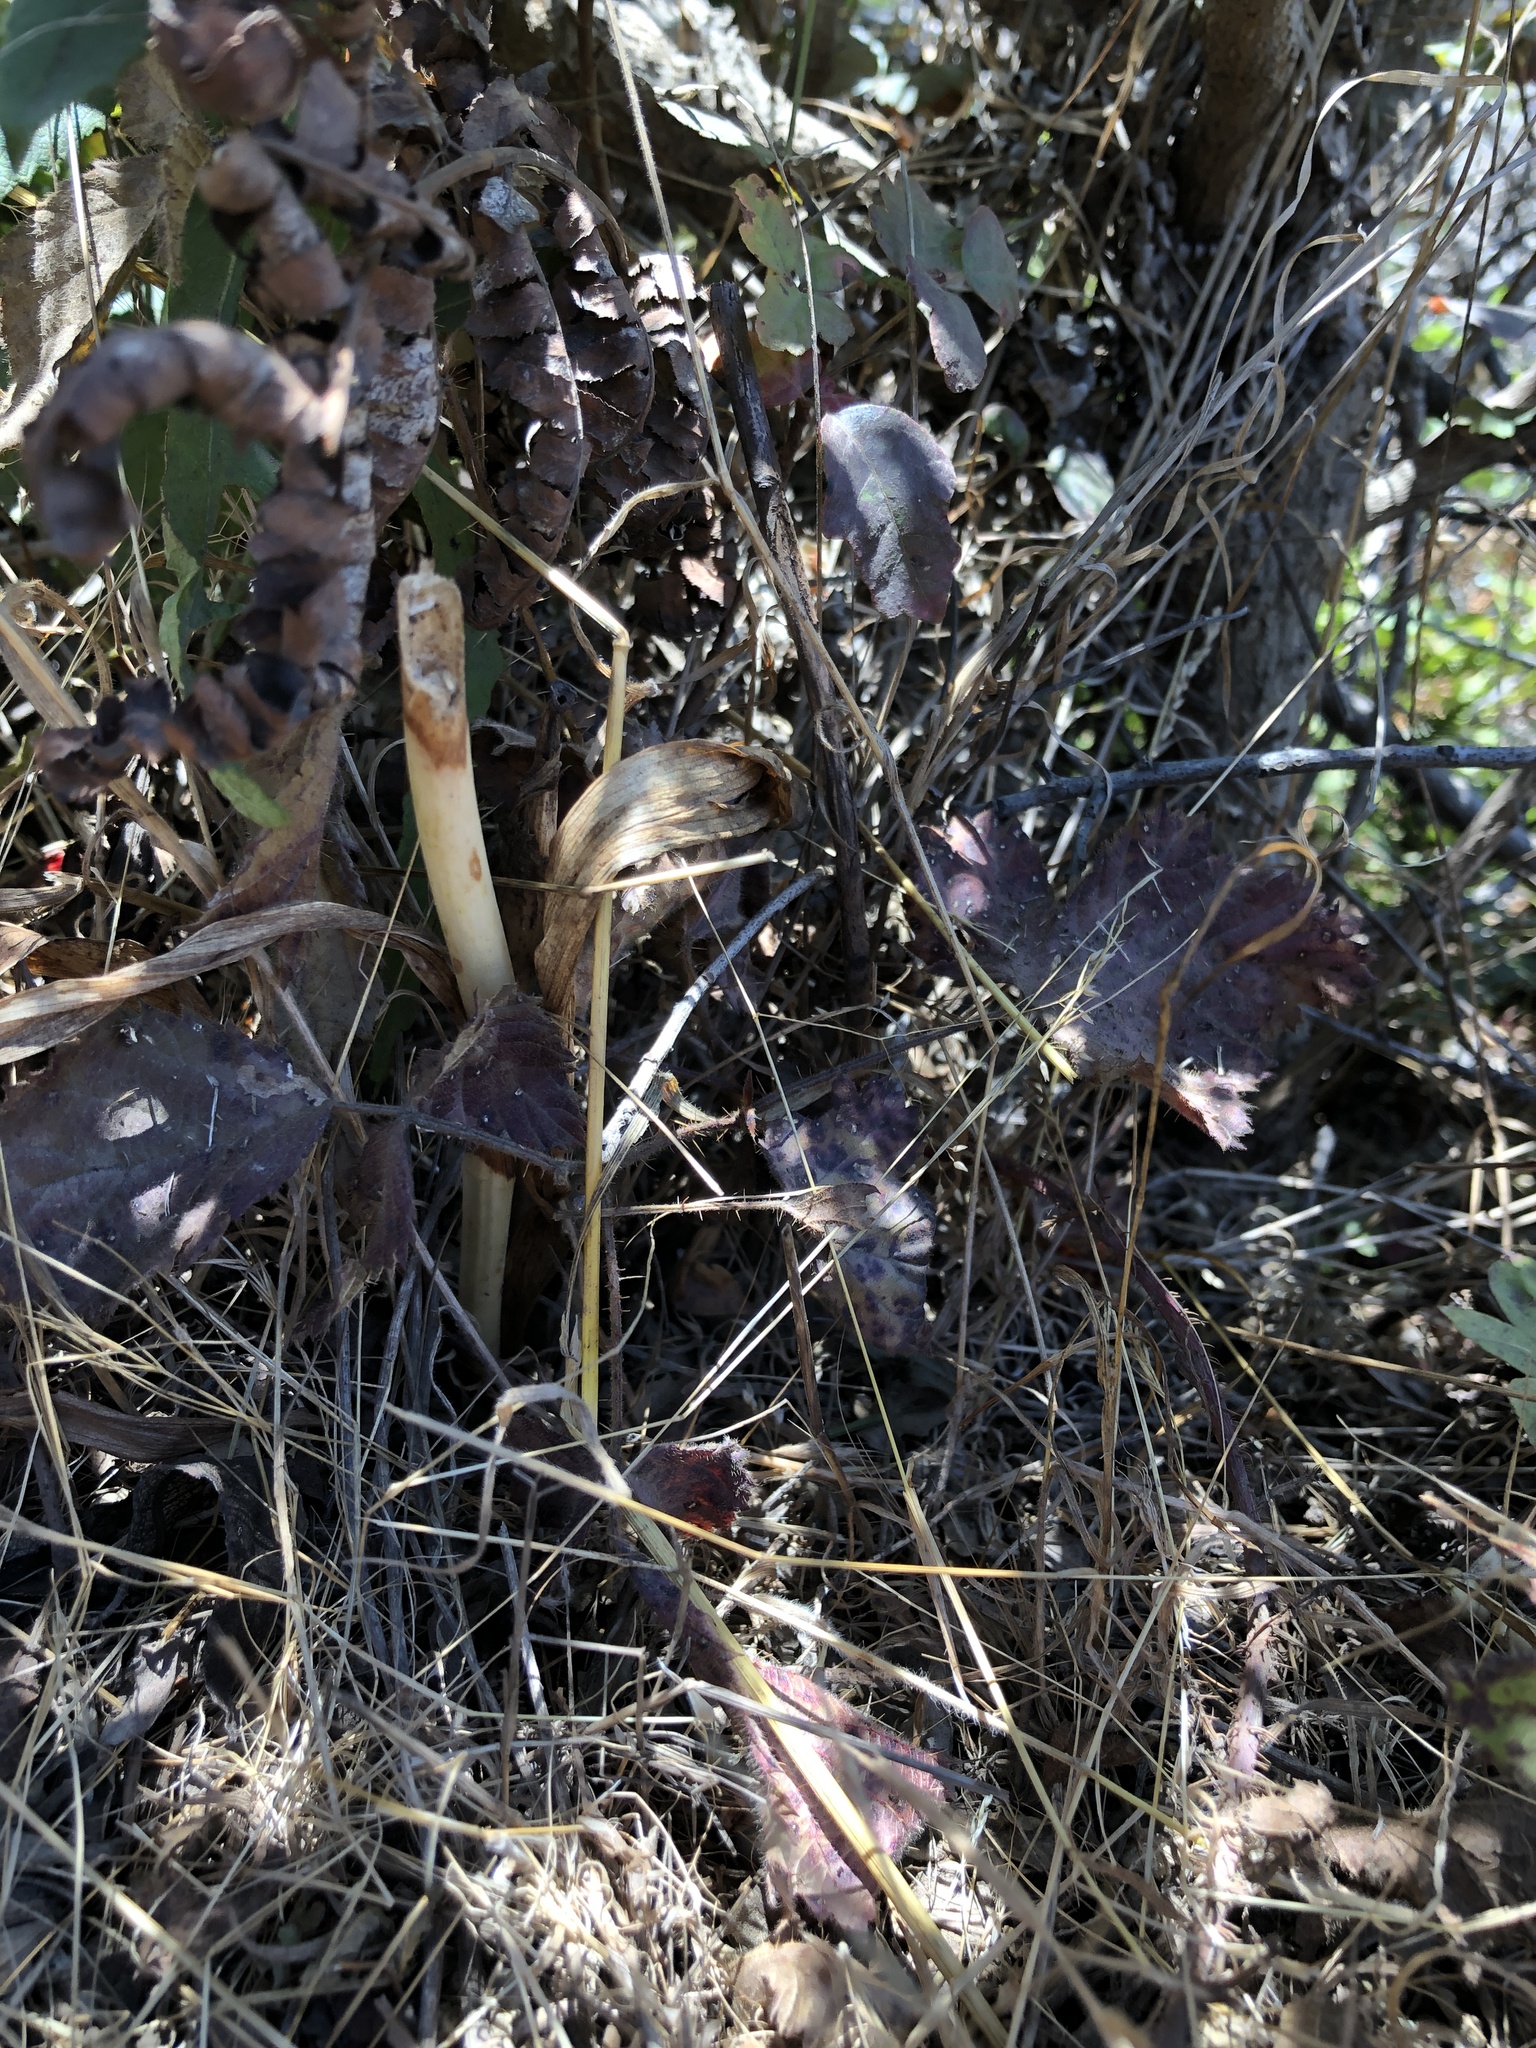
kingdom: Plantae
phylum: Tracheophyta
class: Liliopsida
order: Asparagales
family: Orchidaceae
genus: Platanthera
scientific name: Platanthera elegans
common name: Coast piperia
